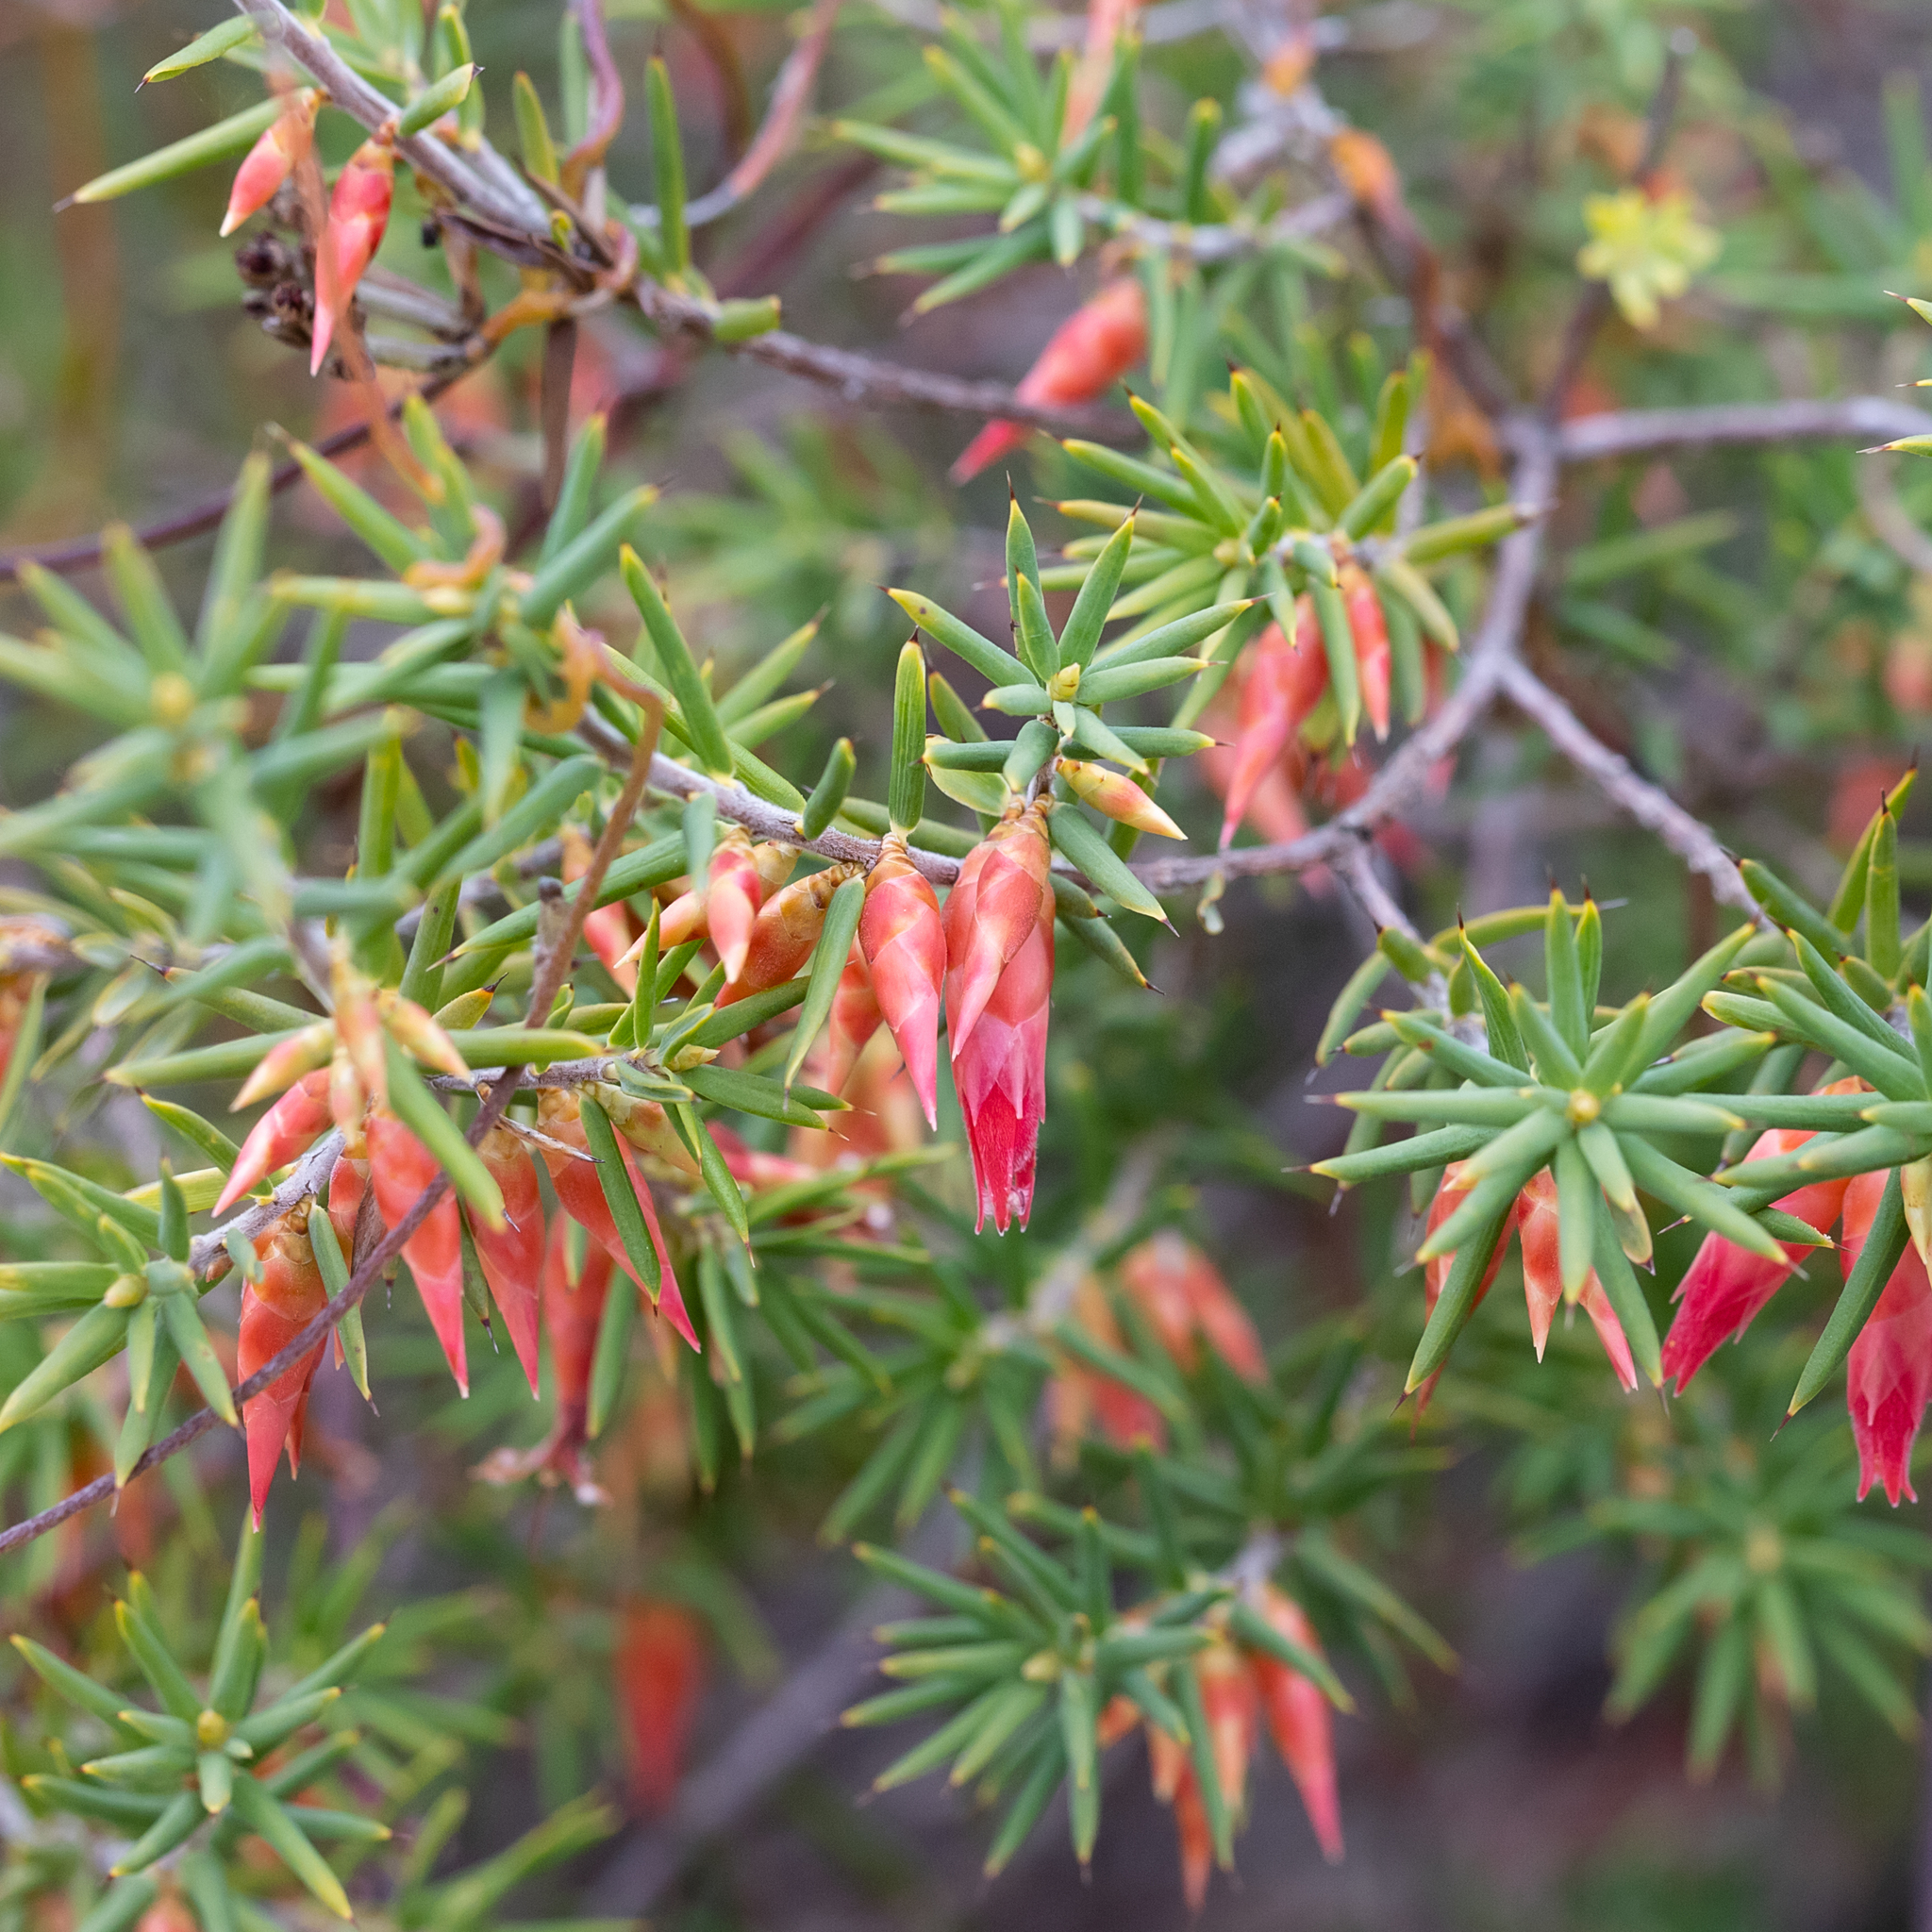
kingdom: Plantae
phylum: Tracheophyta
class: Magnoliopsida
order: Ericales
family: Ericaceae
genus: Stenanthera
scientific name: Stenanthera conostephioides
